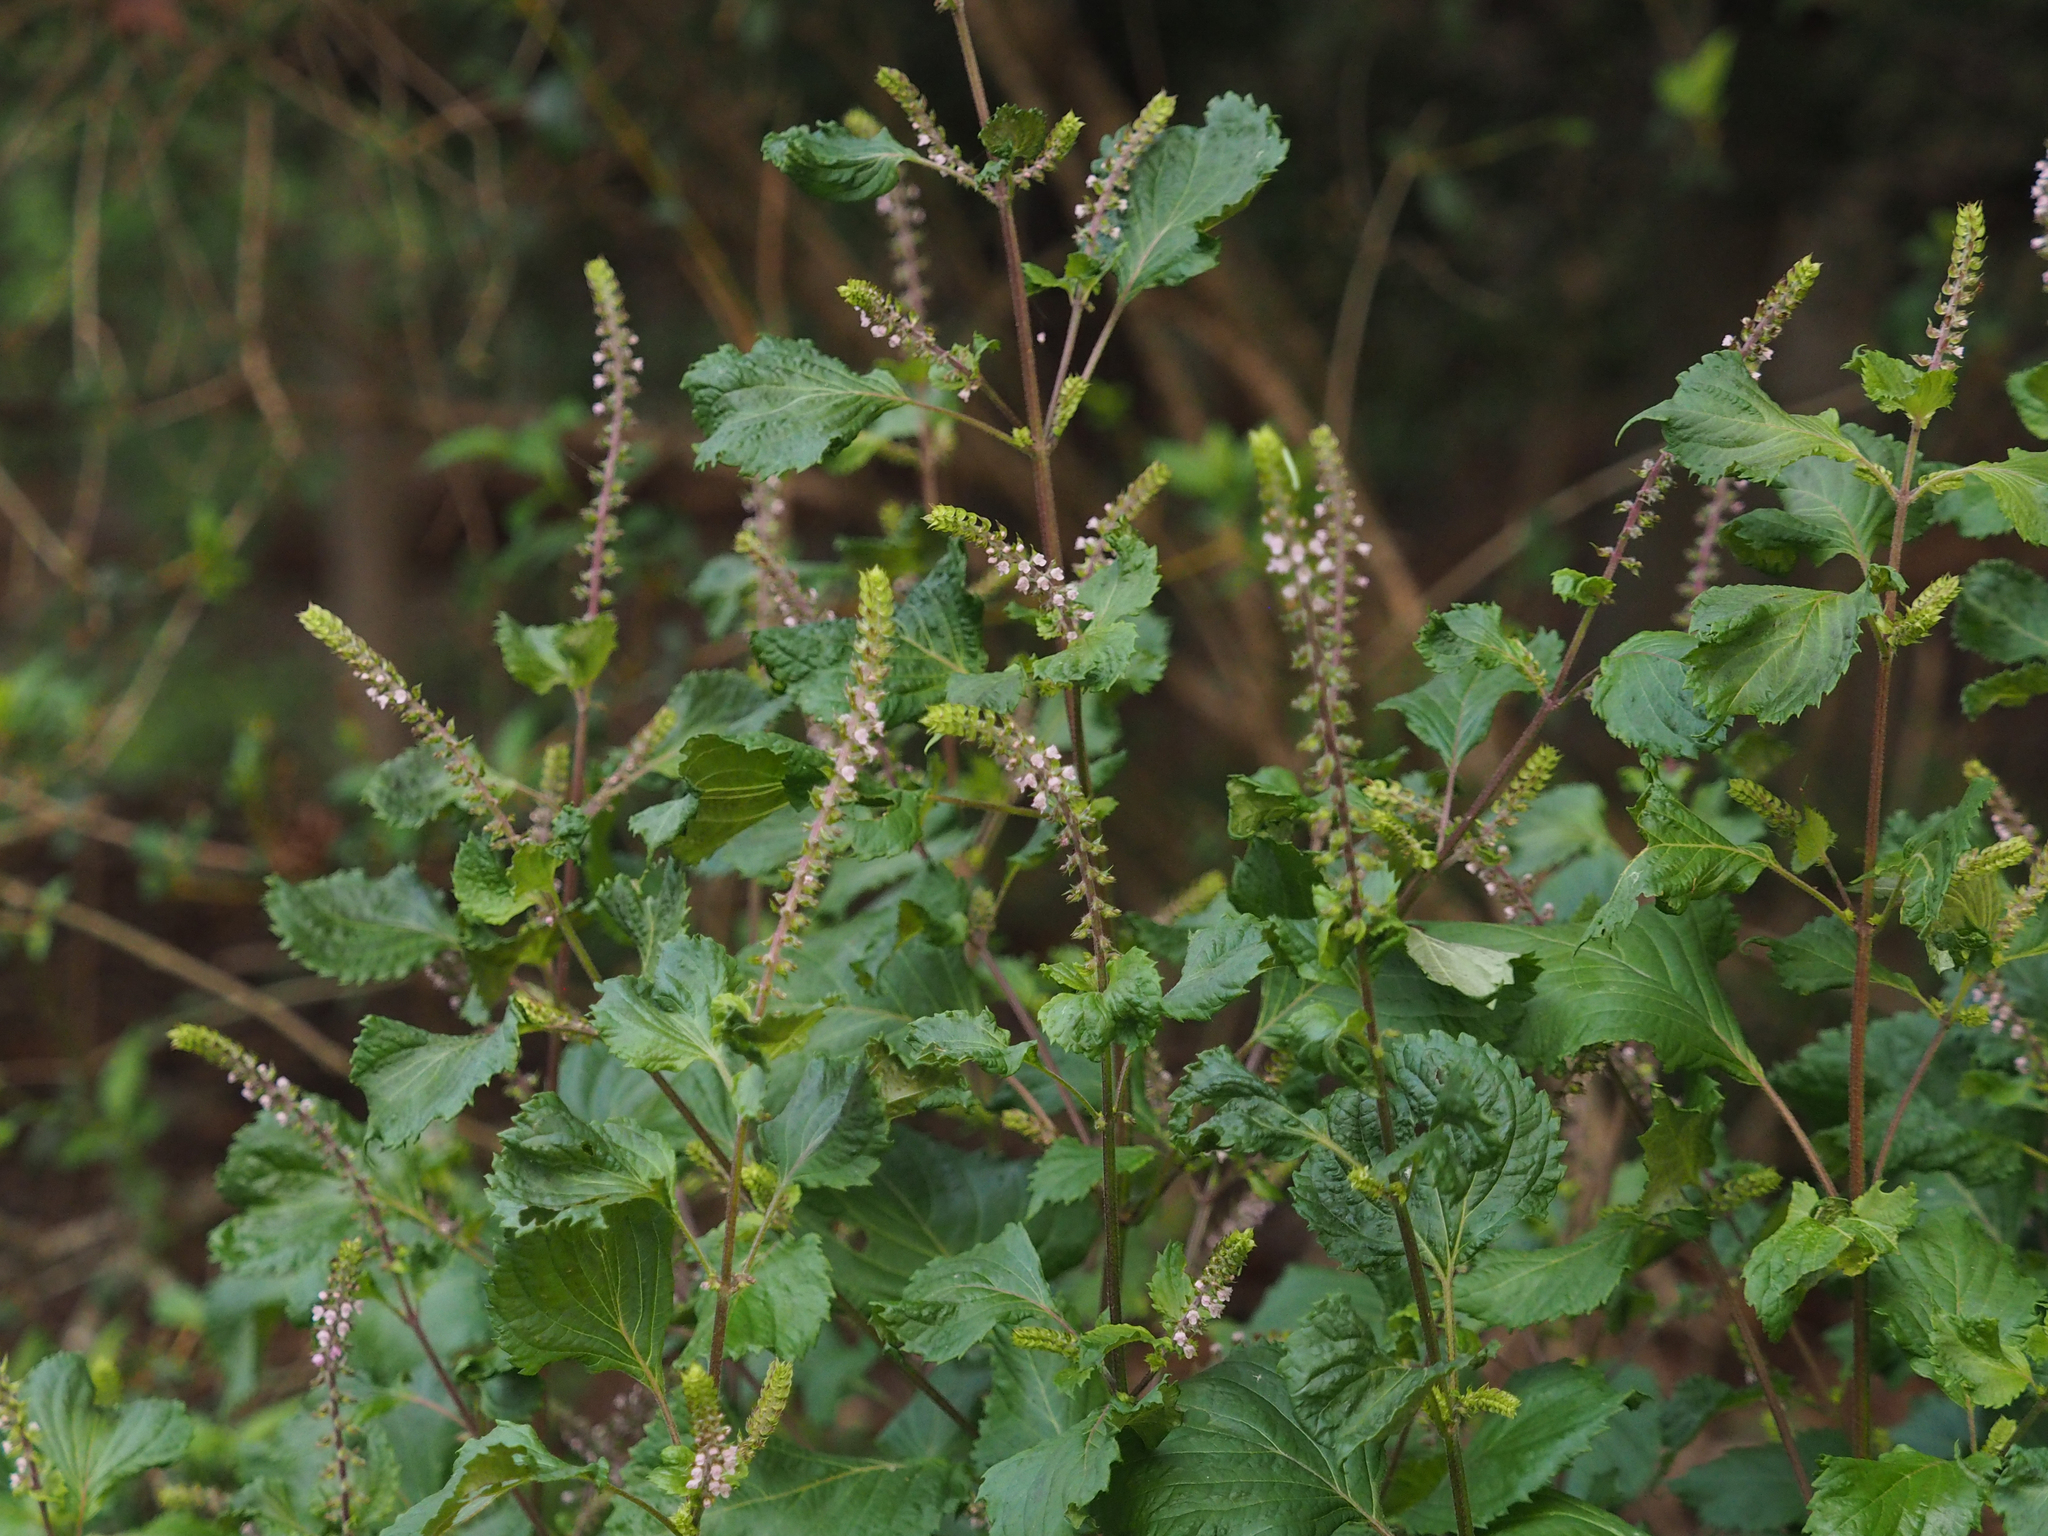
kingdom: Plantae
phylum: Tracheophyta
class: Magnoliopsida
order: Lamiales
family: Lamiaceae
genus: Perilla
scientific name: Perilla frutescens
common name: Perilla
